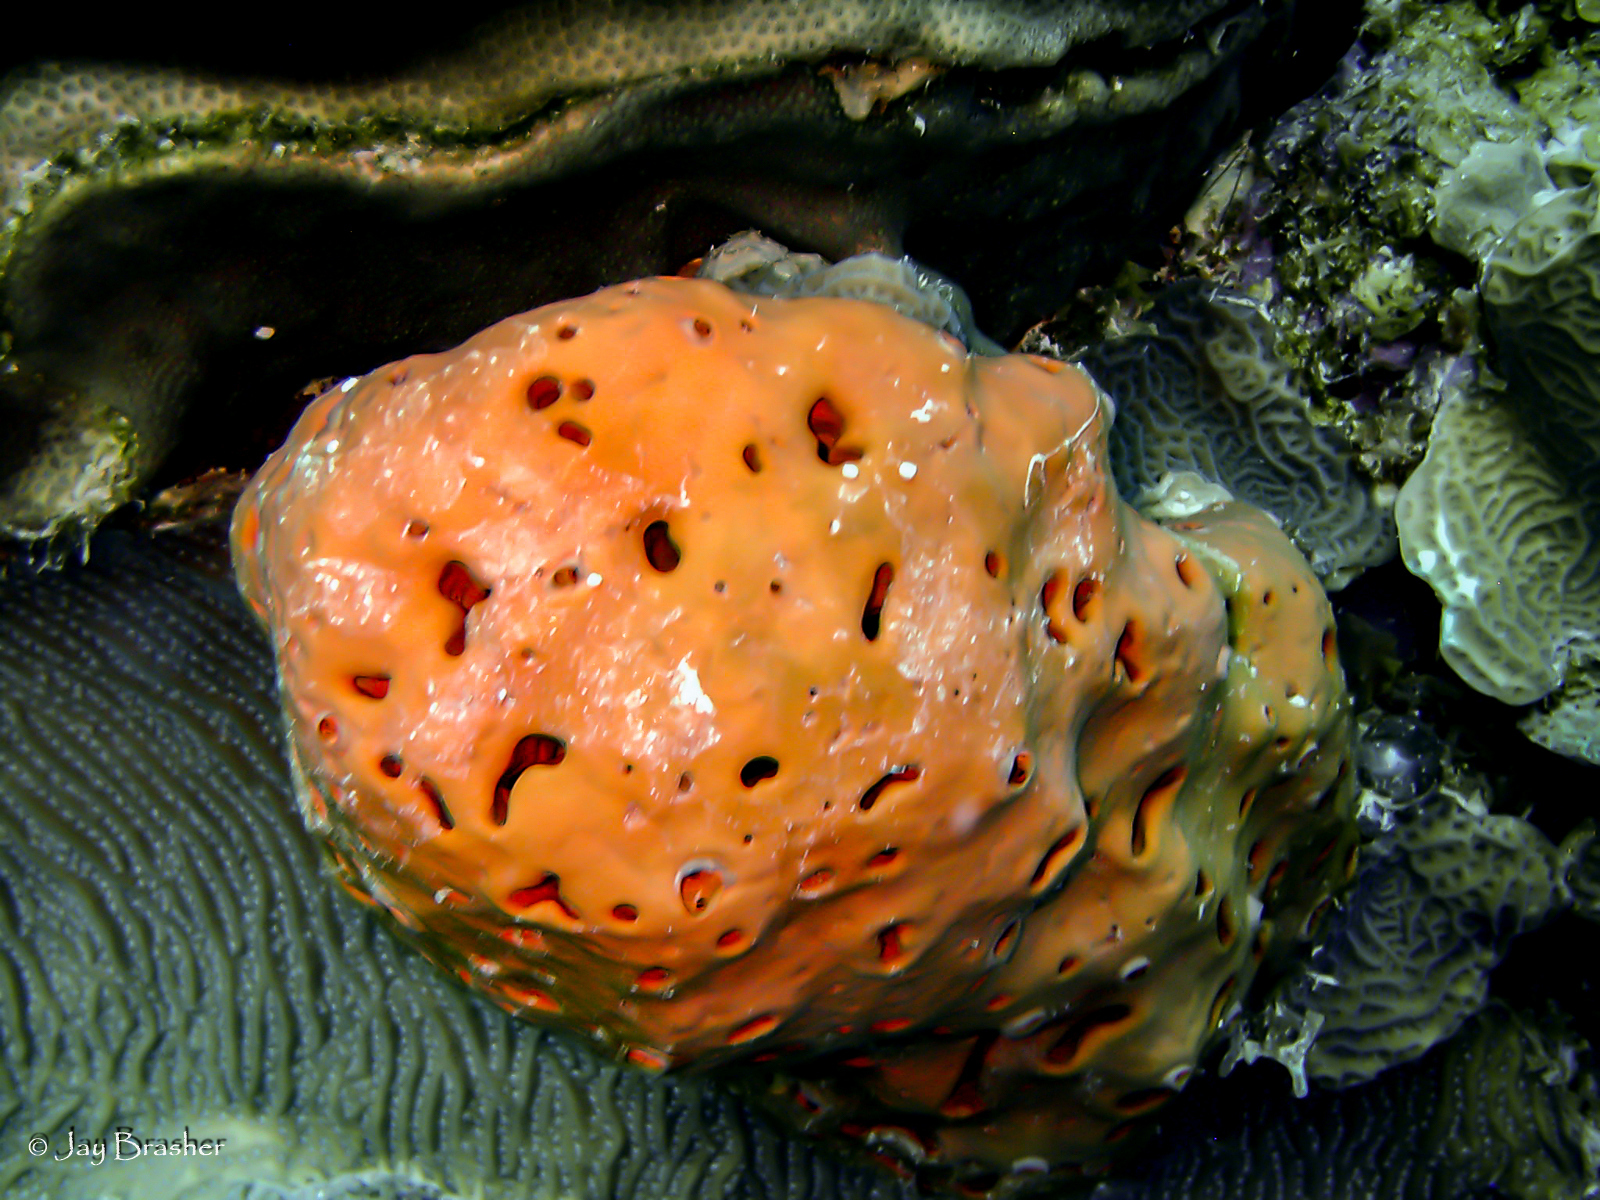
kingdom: Animalia
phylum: Porifera
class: Demospongiae
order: Agelasida
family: Agelasidae
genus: Agelas
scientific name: Agelas sventres
